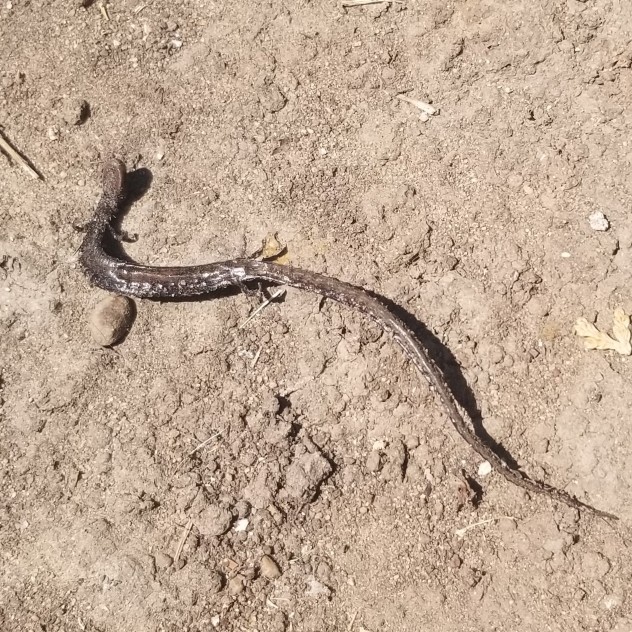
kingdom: Animalia
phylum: Chordata
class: Amphibia
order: Caudata
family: Plethodontidae
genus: Batrachoseps
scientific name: Batrachoseps attenuatus
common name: California slender salamander
